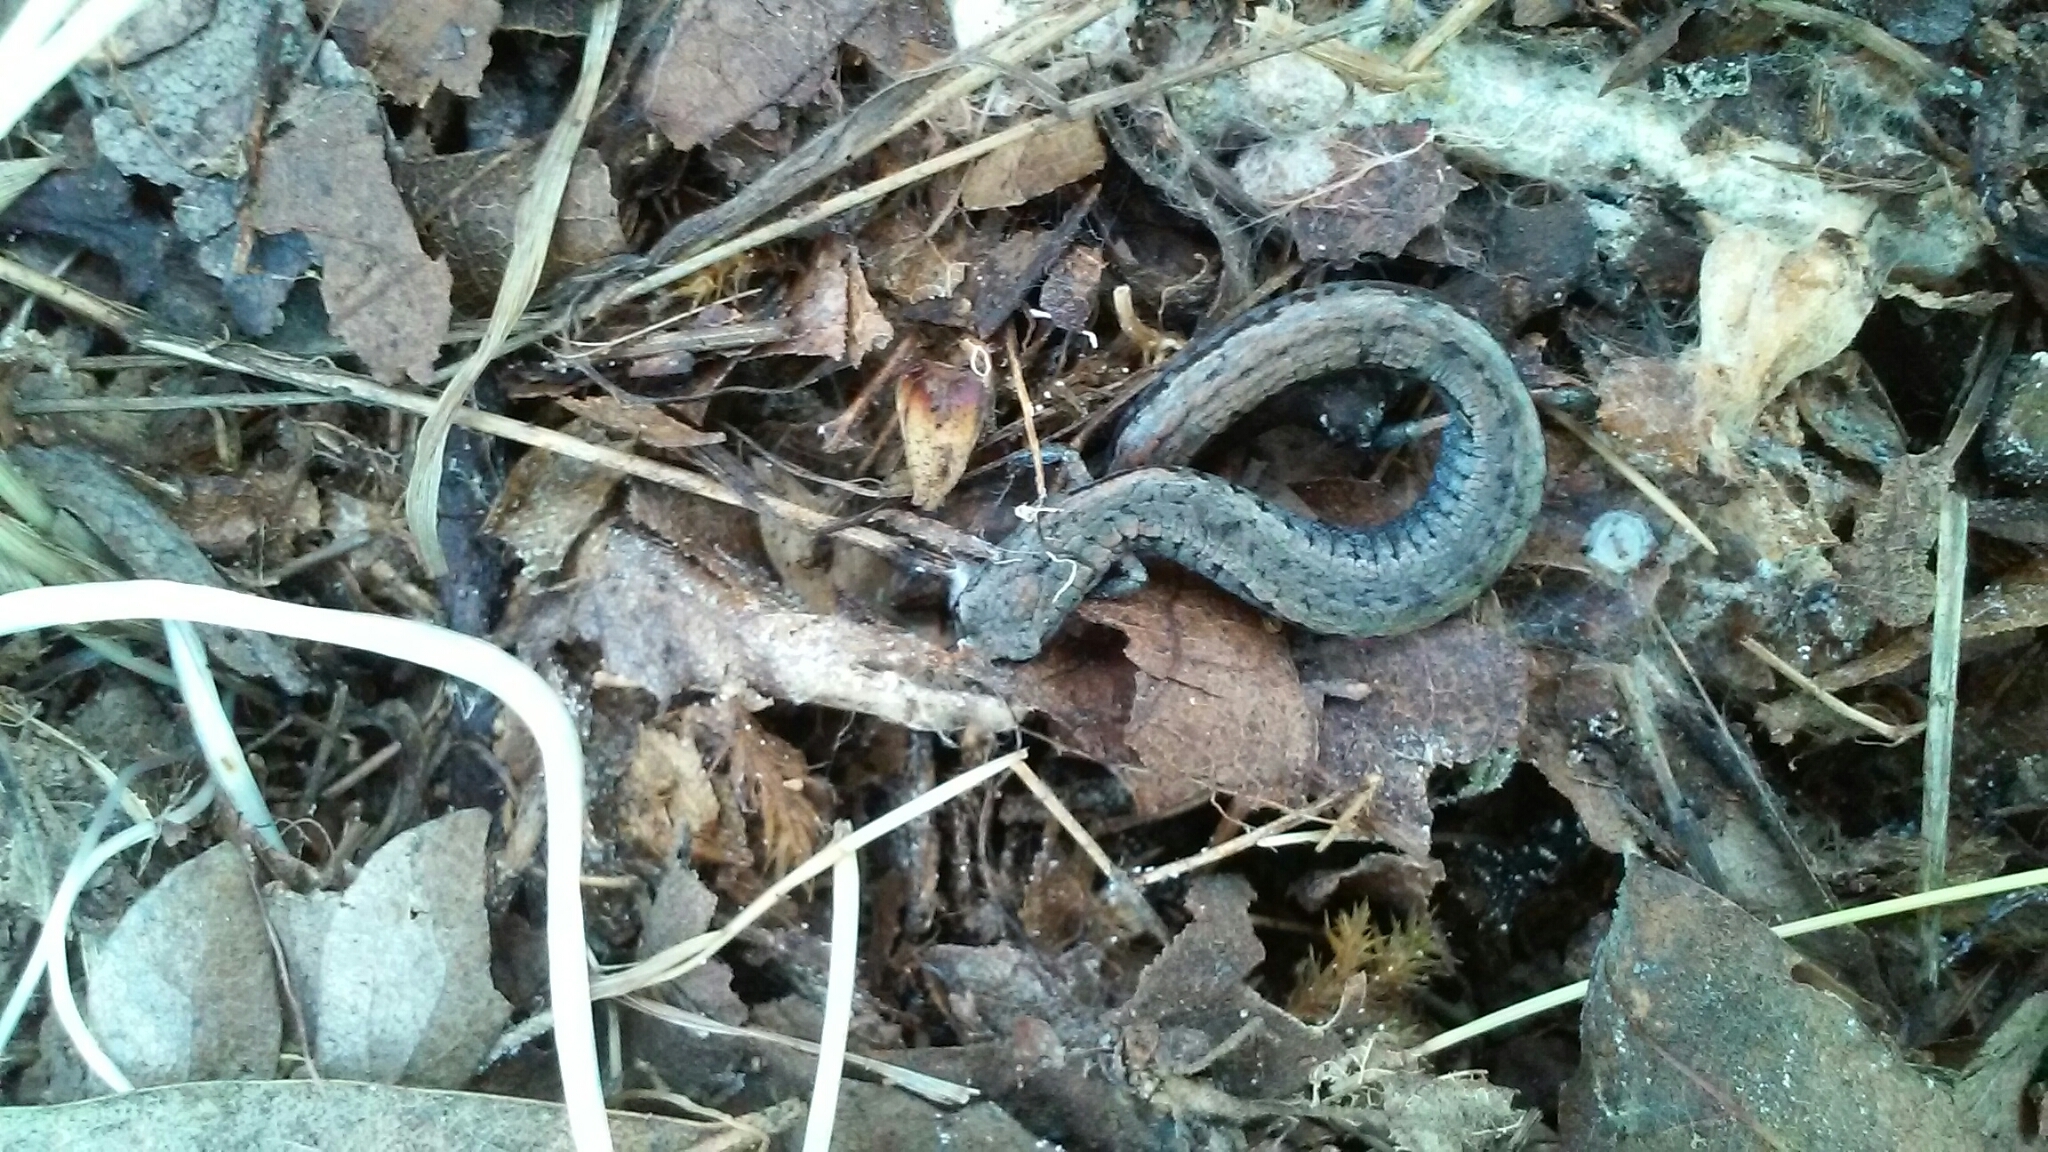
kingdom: Animalia
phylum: Chordata
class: Amphibia
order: Caudata
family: Plethodontidae
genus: Batrachoseps
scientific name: Batrachoseps attenuatus
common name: California slender salamander
